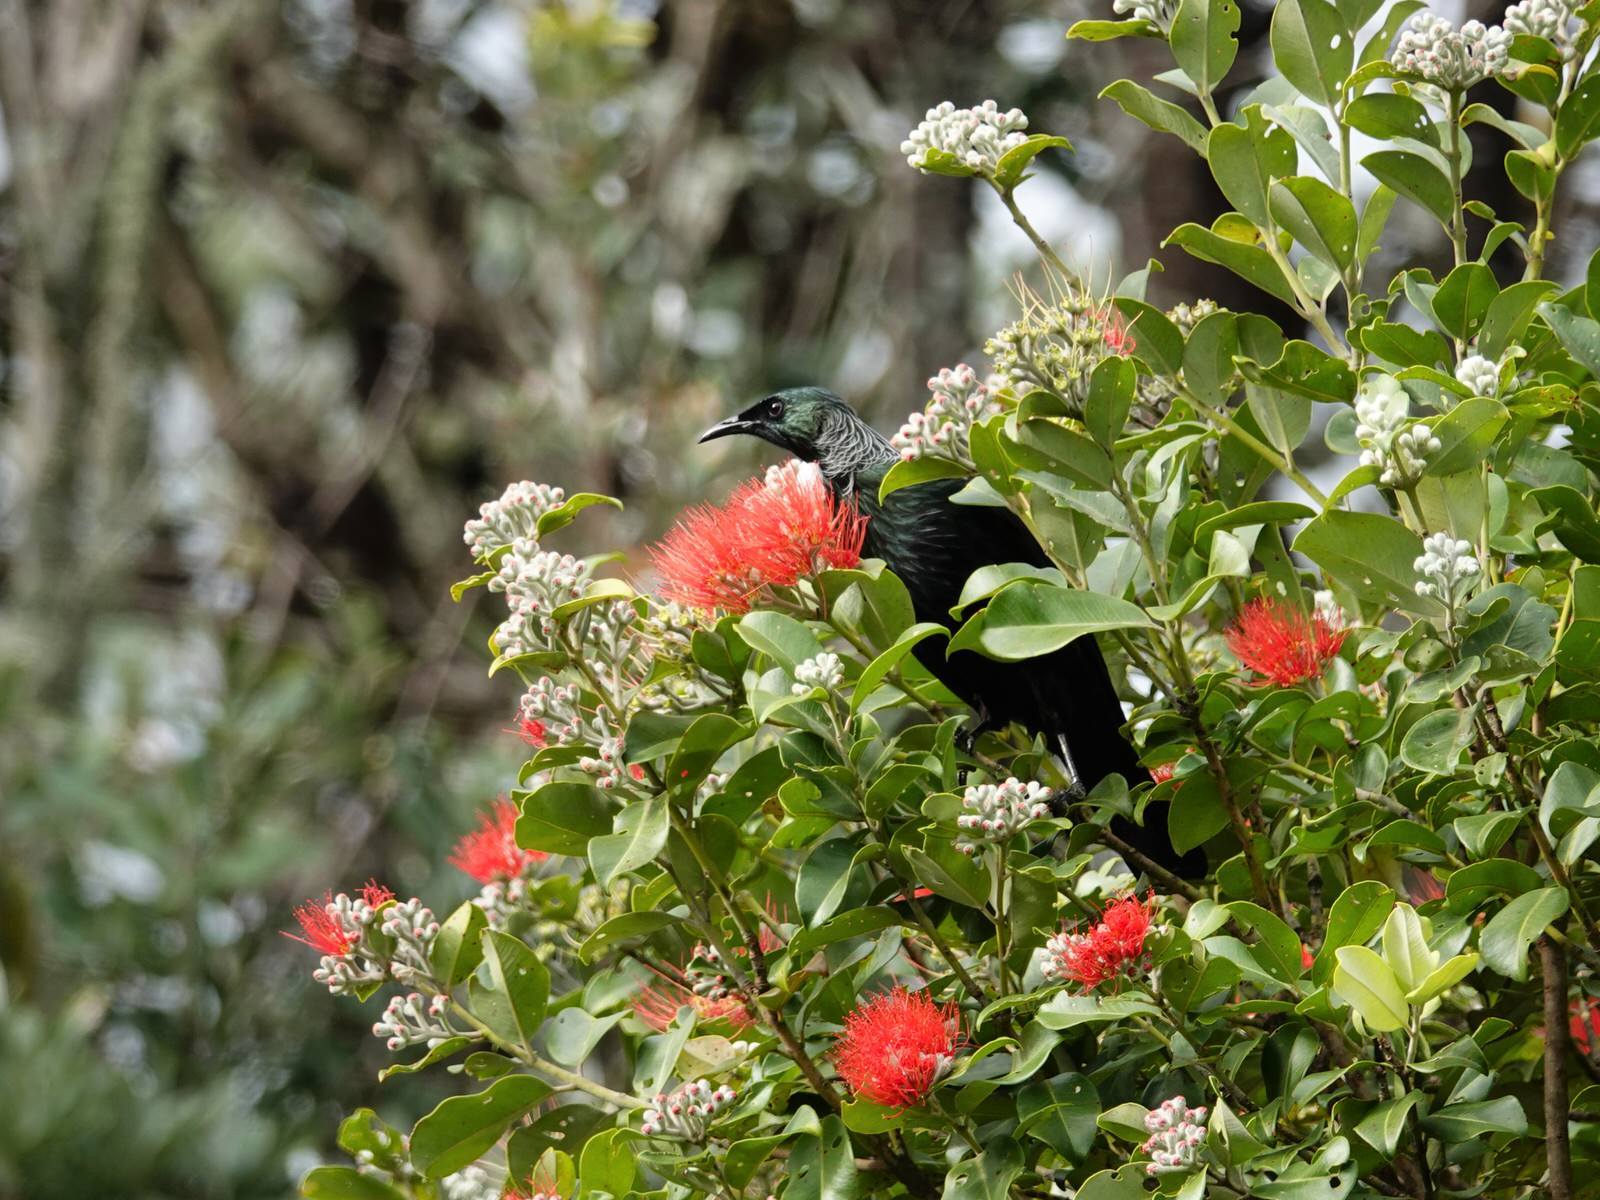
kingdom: Animalia
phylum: Chordata
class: Aves
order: Passeriformes
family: Meliphagidae
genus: Prosthemadera
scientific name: Prosthemadera novaeseelandiae
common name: Tui
